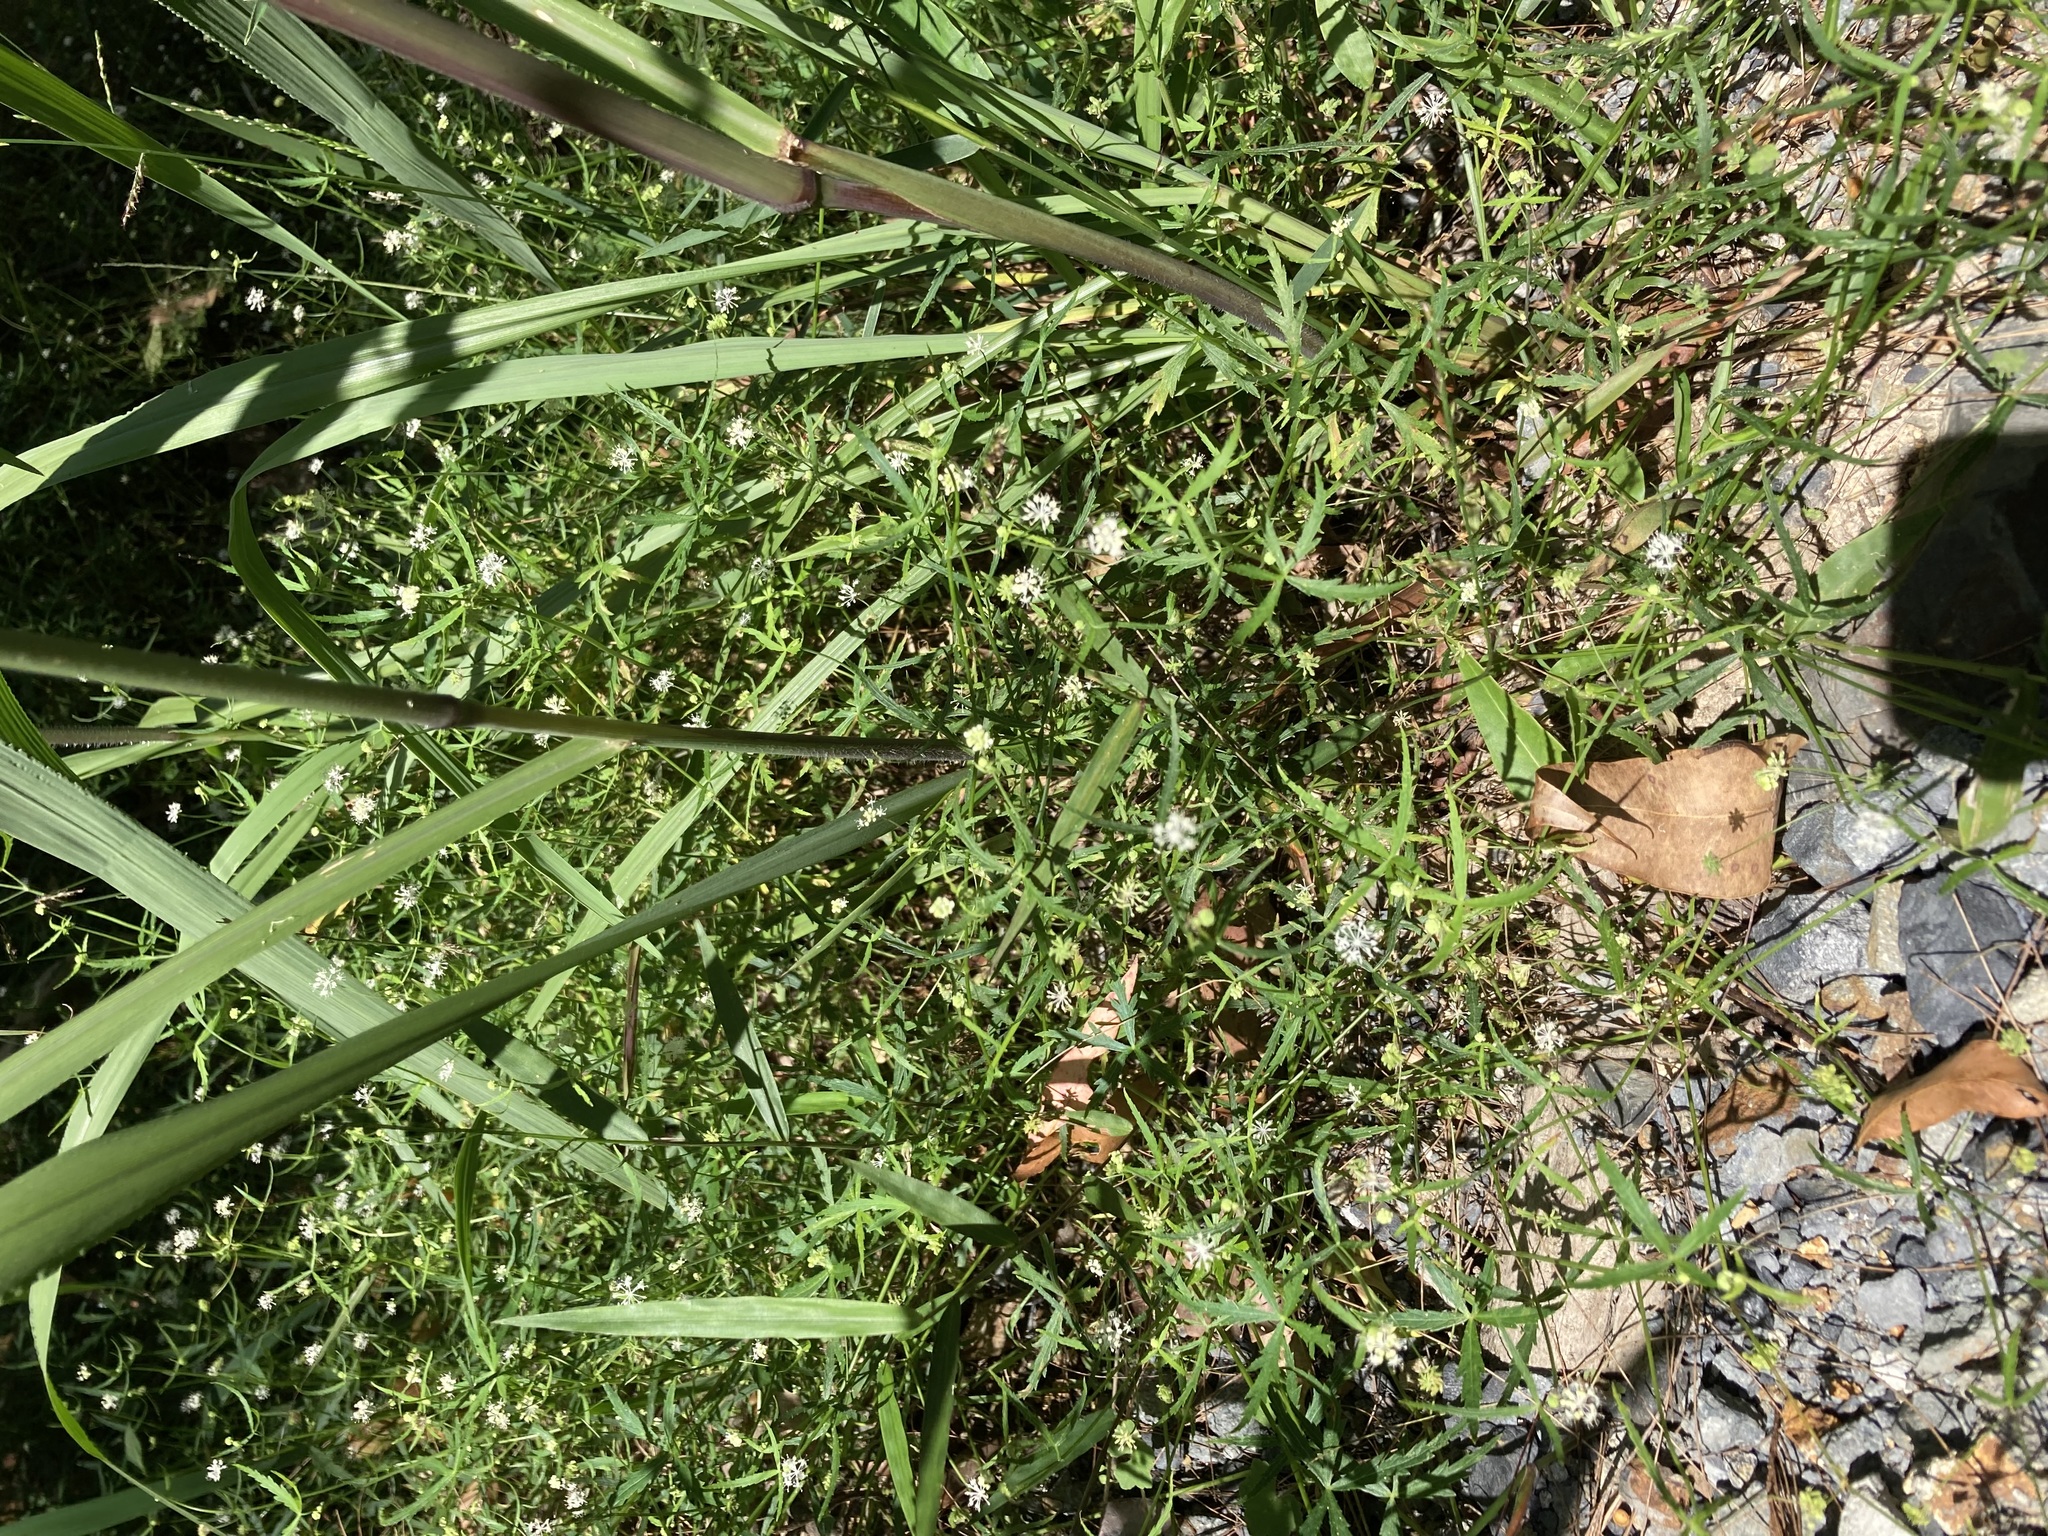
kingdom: Plantae
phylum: Tracheophyta
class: Magnoliopsida
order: Apiales
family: Araliaceae
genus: Hydrocotyle
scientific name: Hydrocotyle geraniifolia
